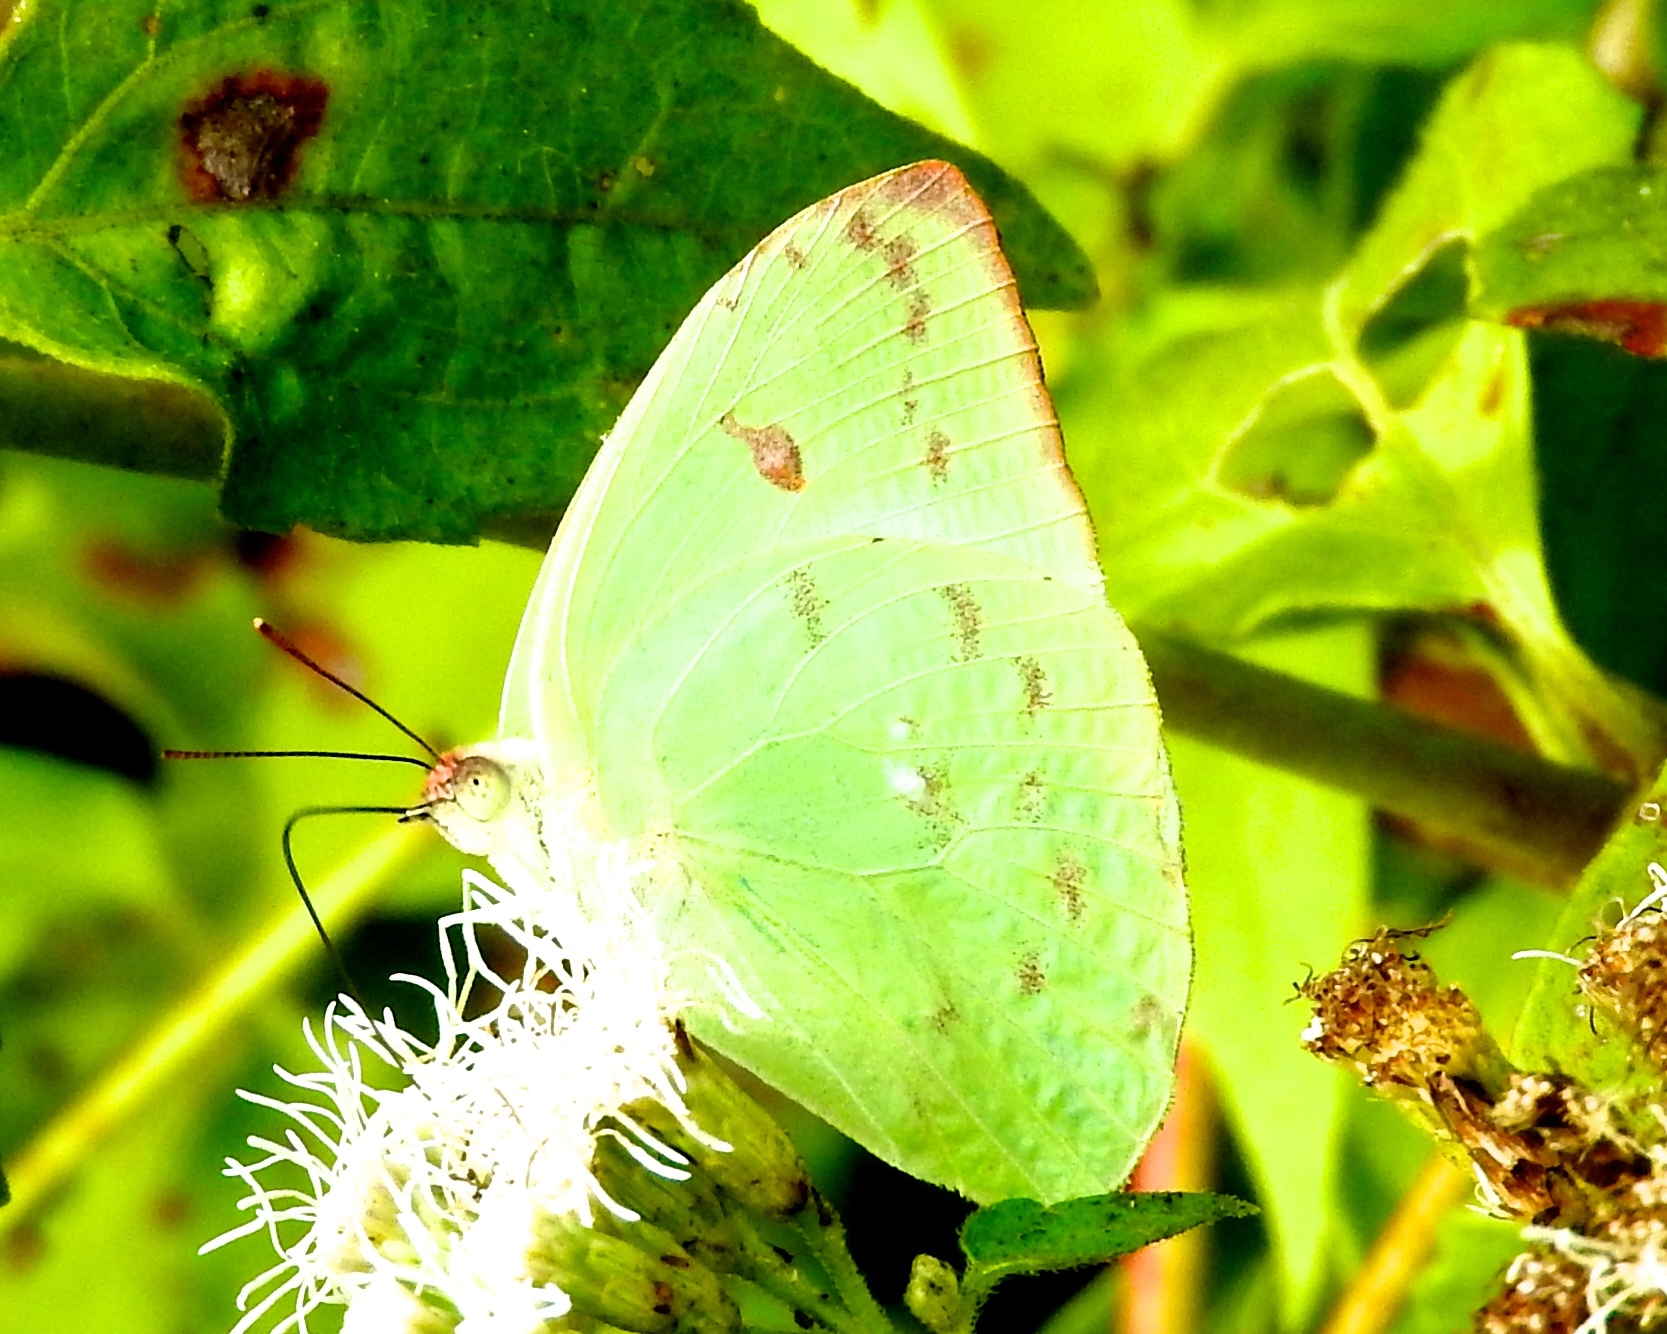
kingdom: Animalia
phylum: Arthropoda
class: Insecta
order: Lepidoptera
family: Pieridae
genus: Aphrissa
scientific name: Aphrissa statira
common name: Statira sulphur
